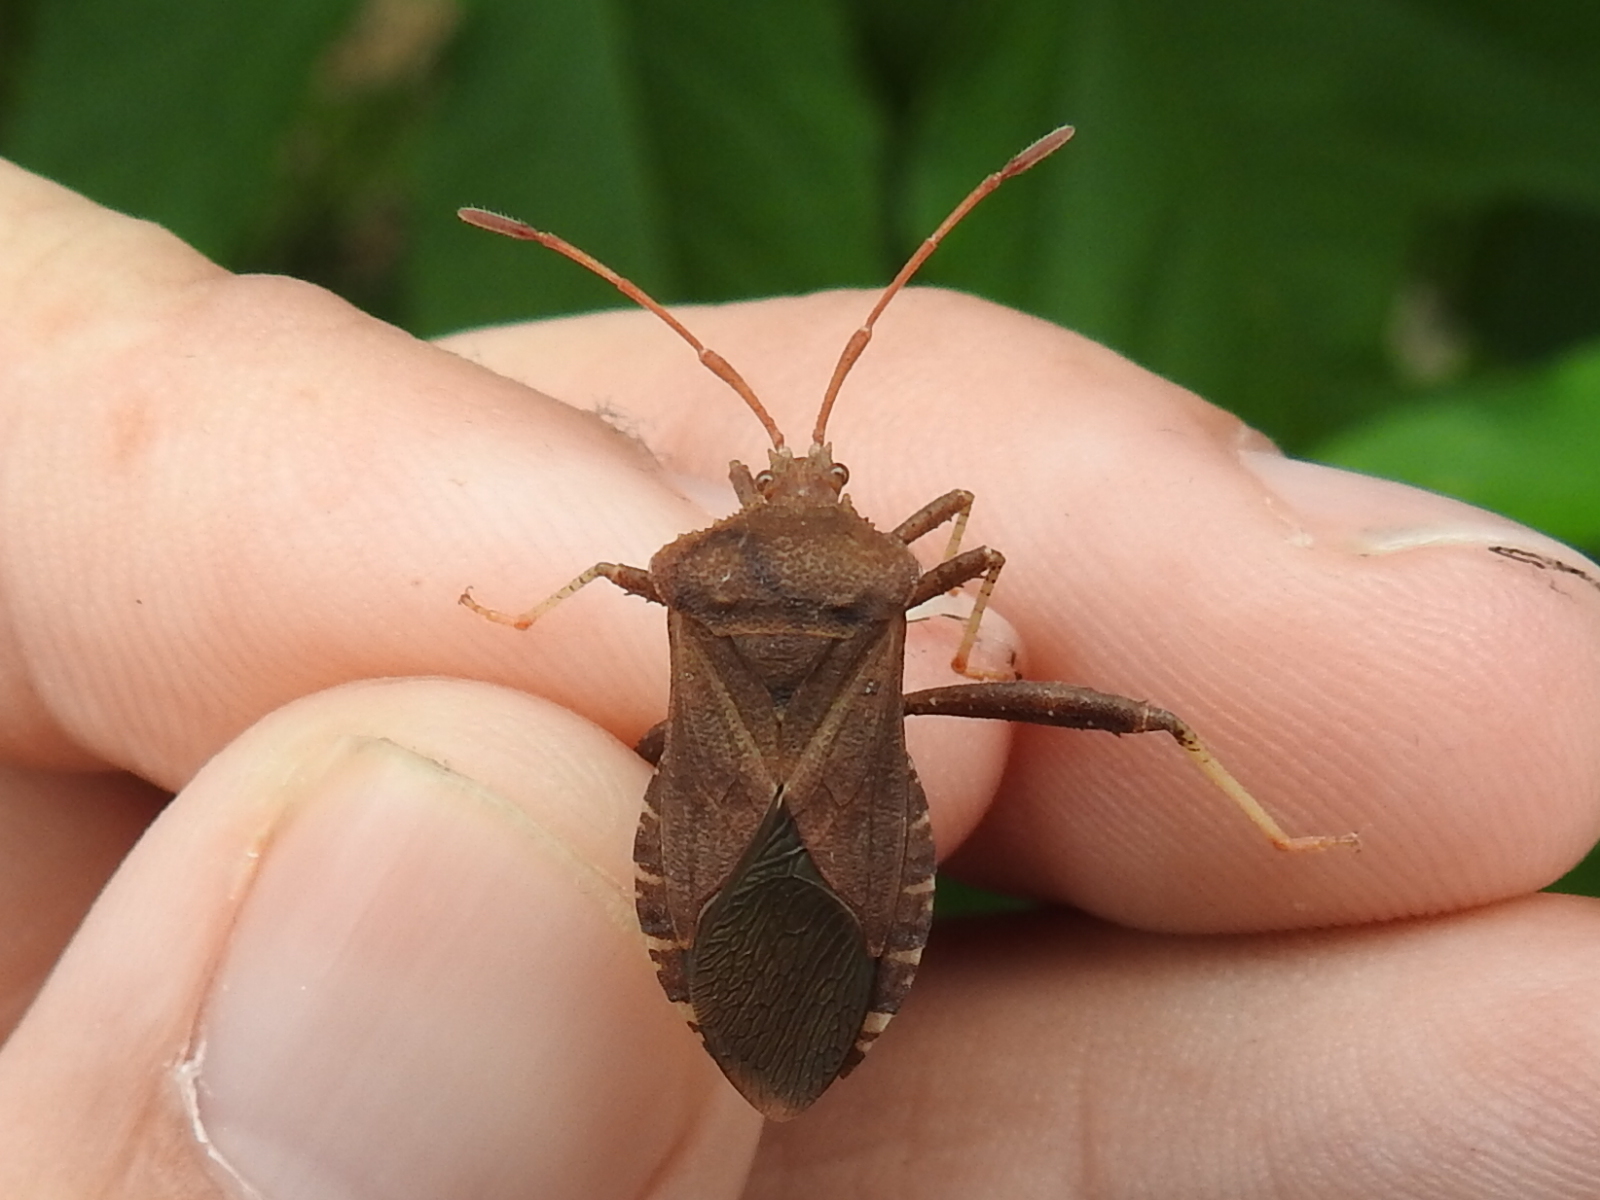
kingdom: Animalia
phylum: Arthropoda
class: Insecta
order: Hemiptera
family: Coreidae
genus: Euthochtha
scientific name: Euthochtha galeator
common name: Helmeted squash bug
